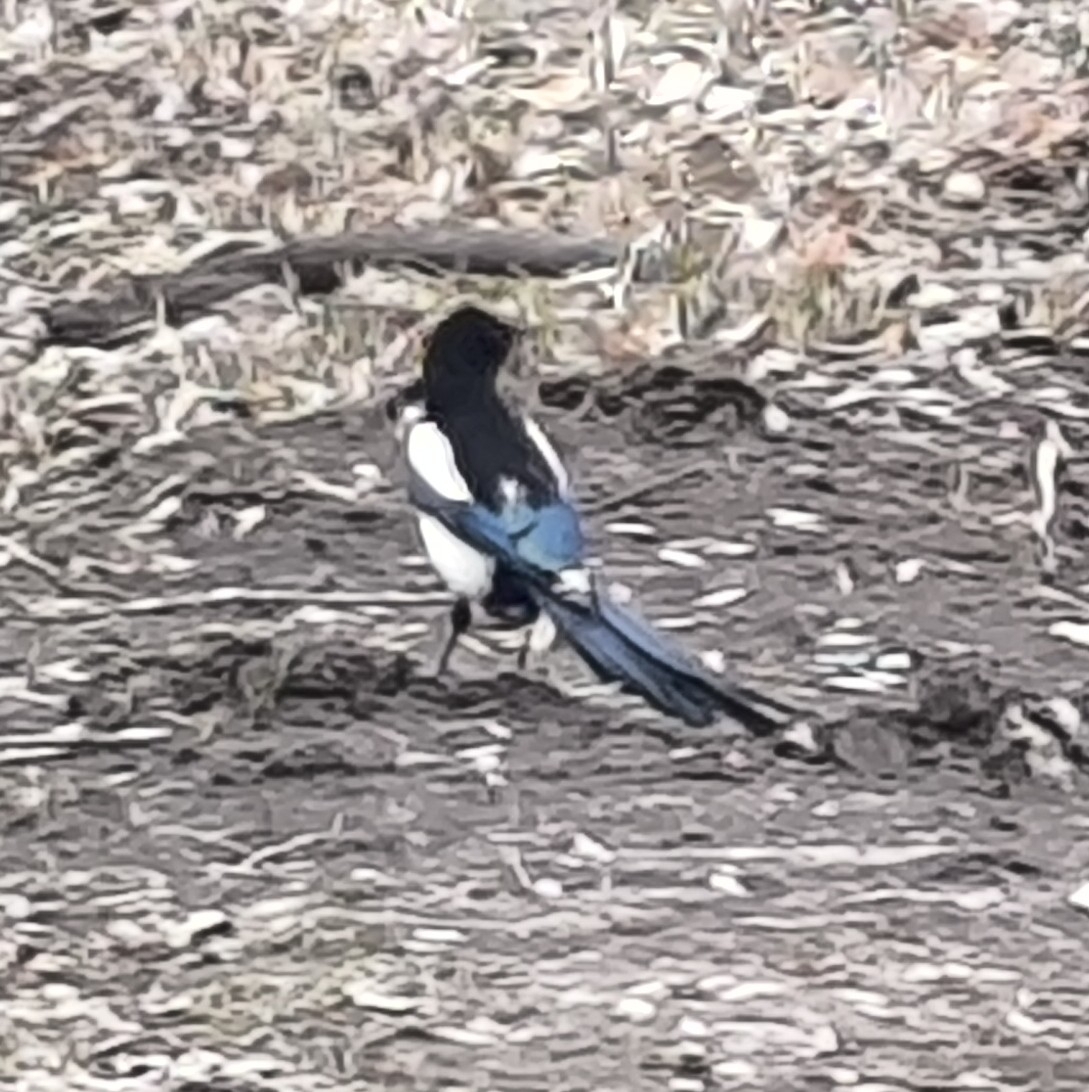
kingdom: Animalia
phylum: Chordata
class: Aves
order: Passeriformes
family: Corvidae
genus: Pica
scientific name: Pica pica
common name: Eurasian magpie
